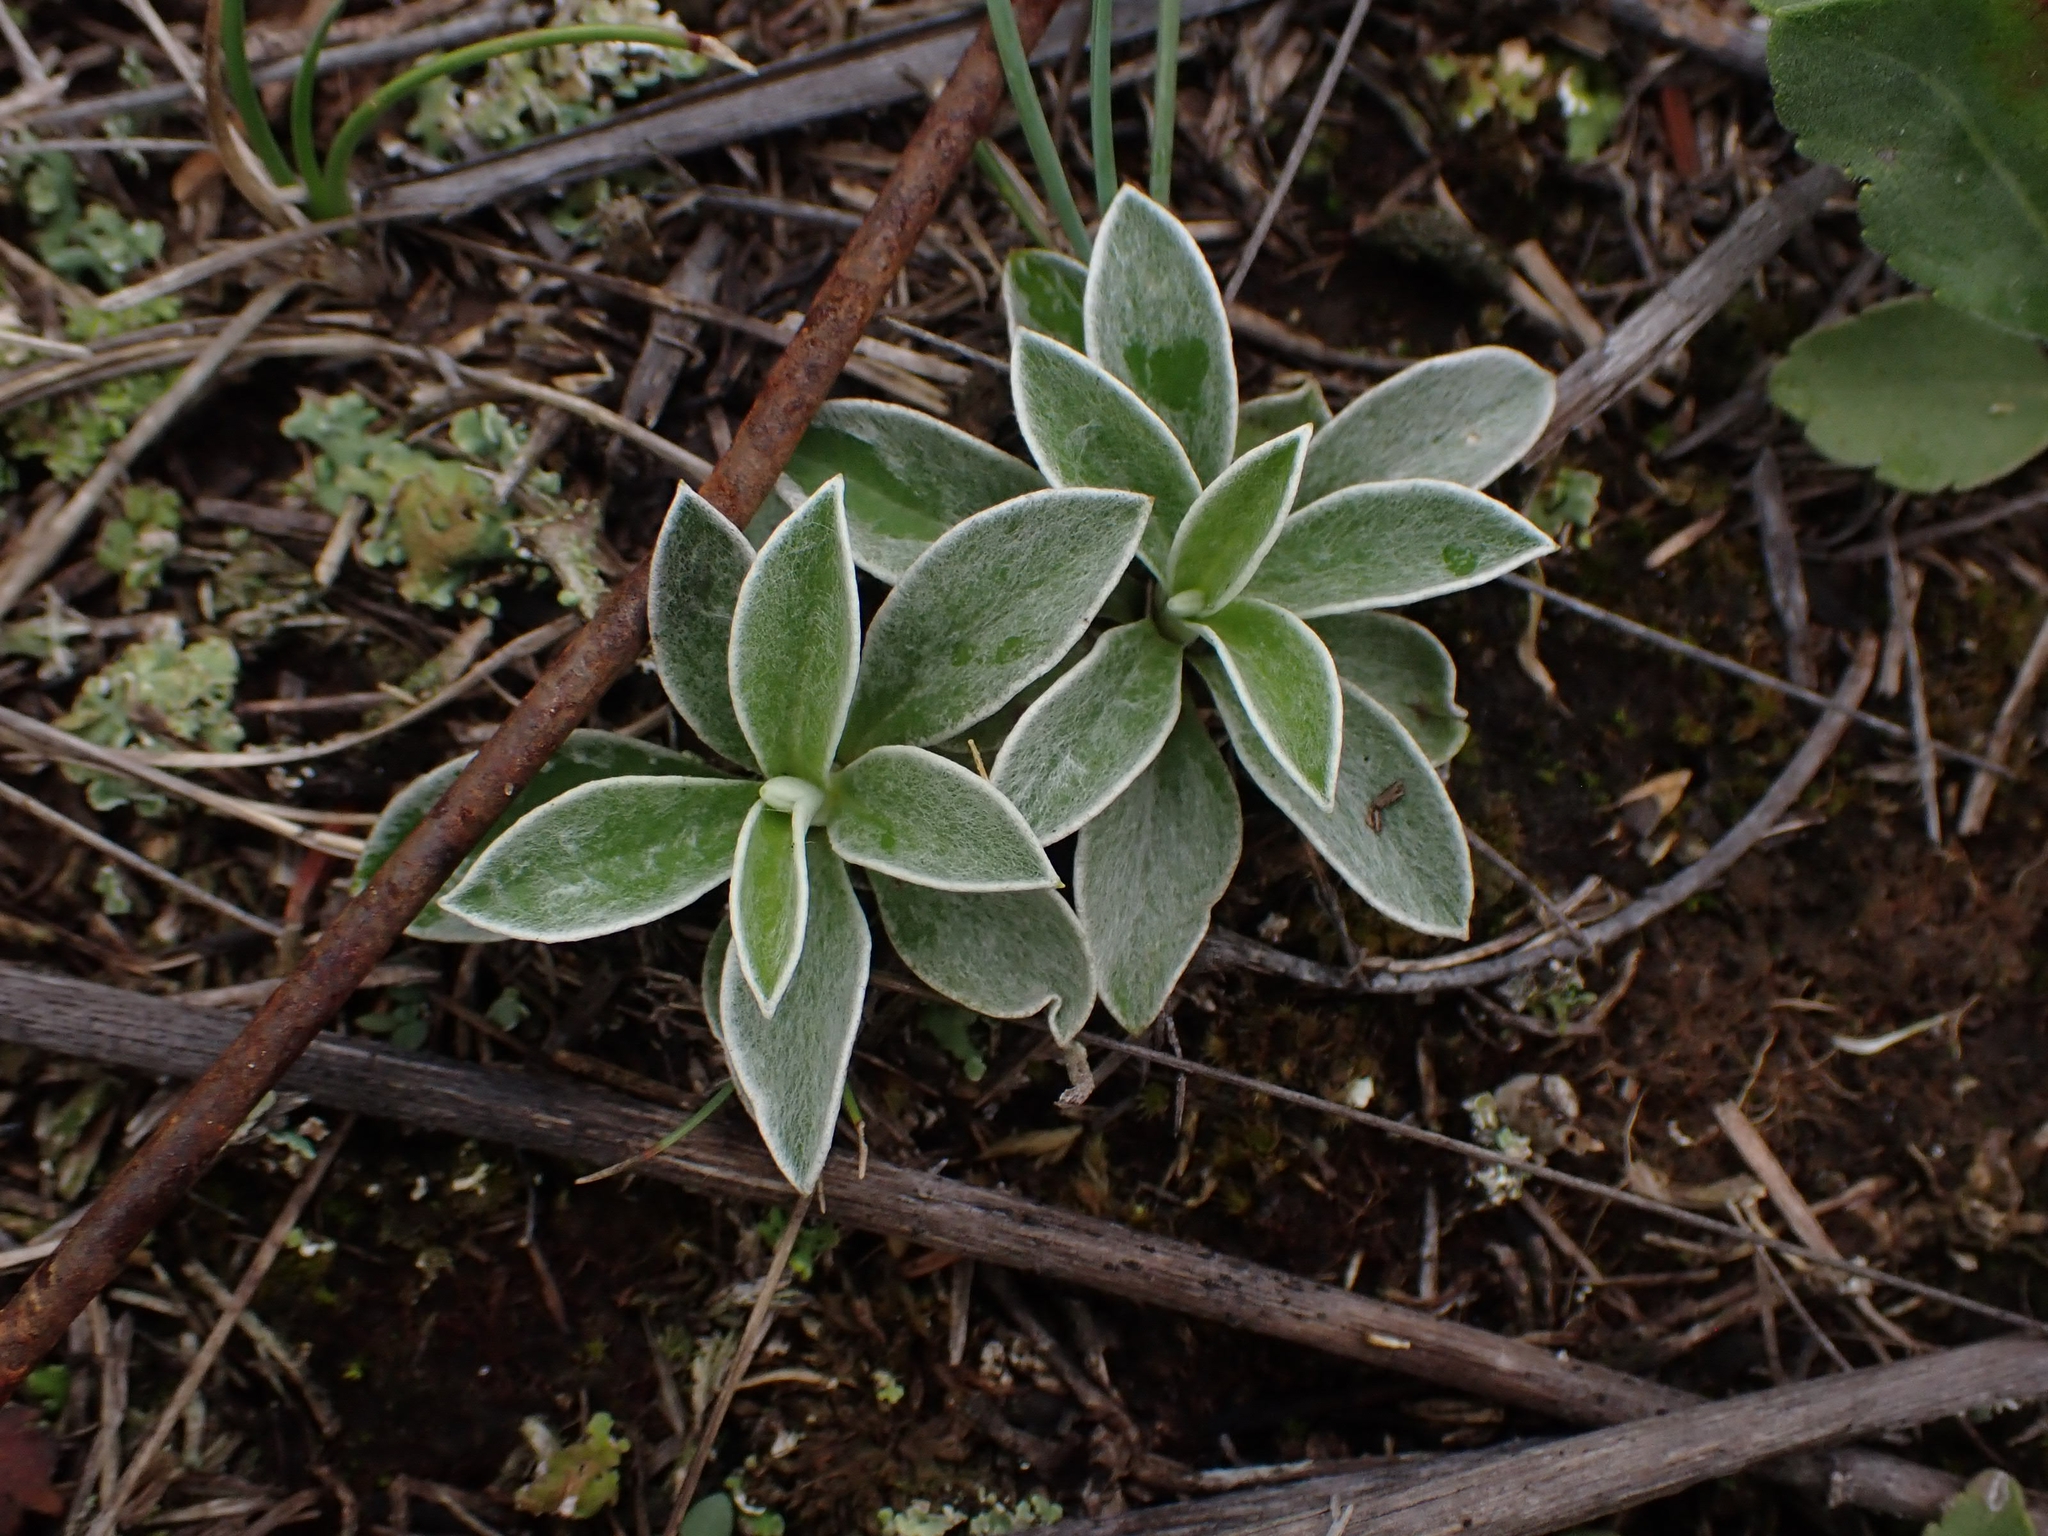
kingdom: Plantae
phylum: Tracheophyta
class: Magnoliopsida
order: Asterales
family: Asteraceae
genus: Antennaria
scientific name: Antennaria neglecta
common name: Field pussytoes
